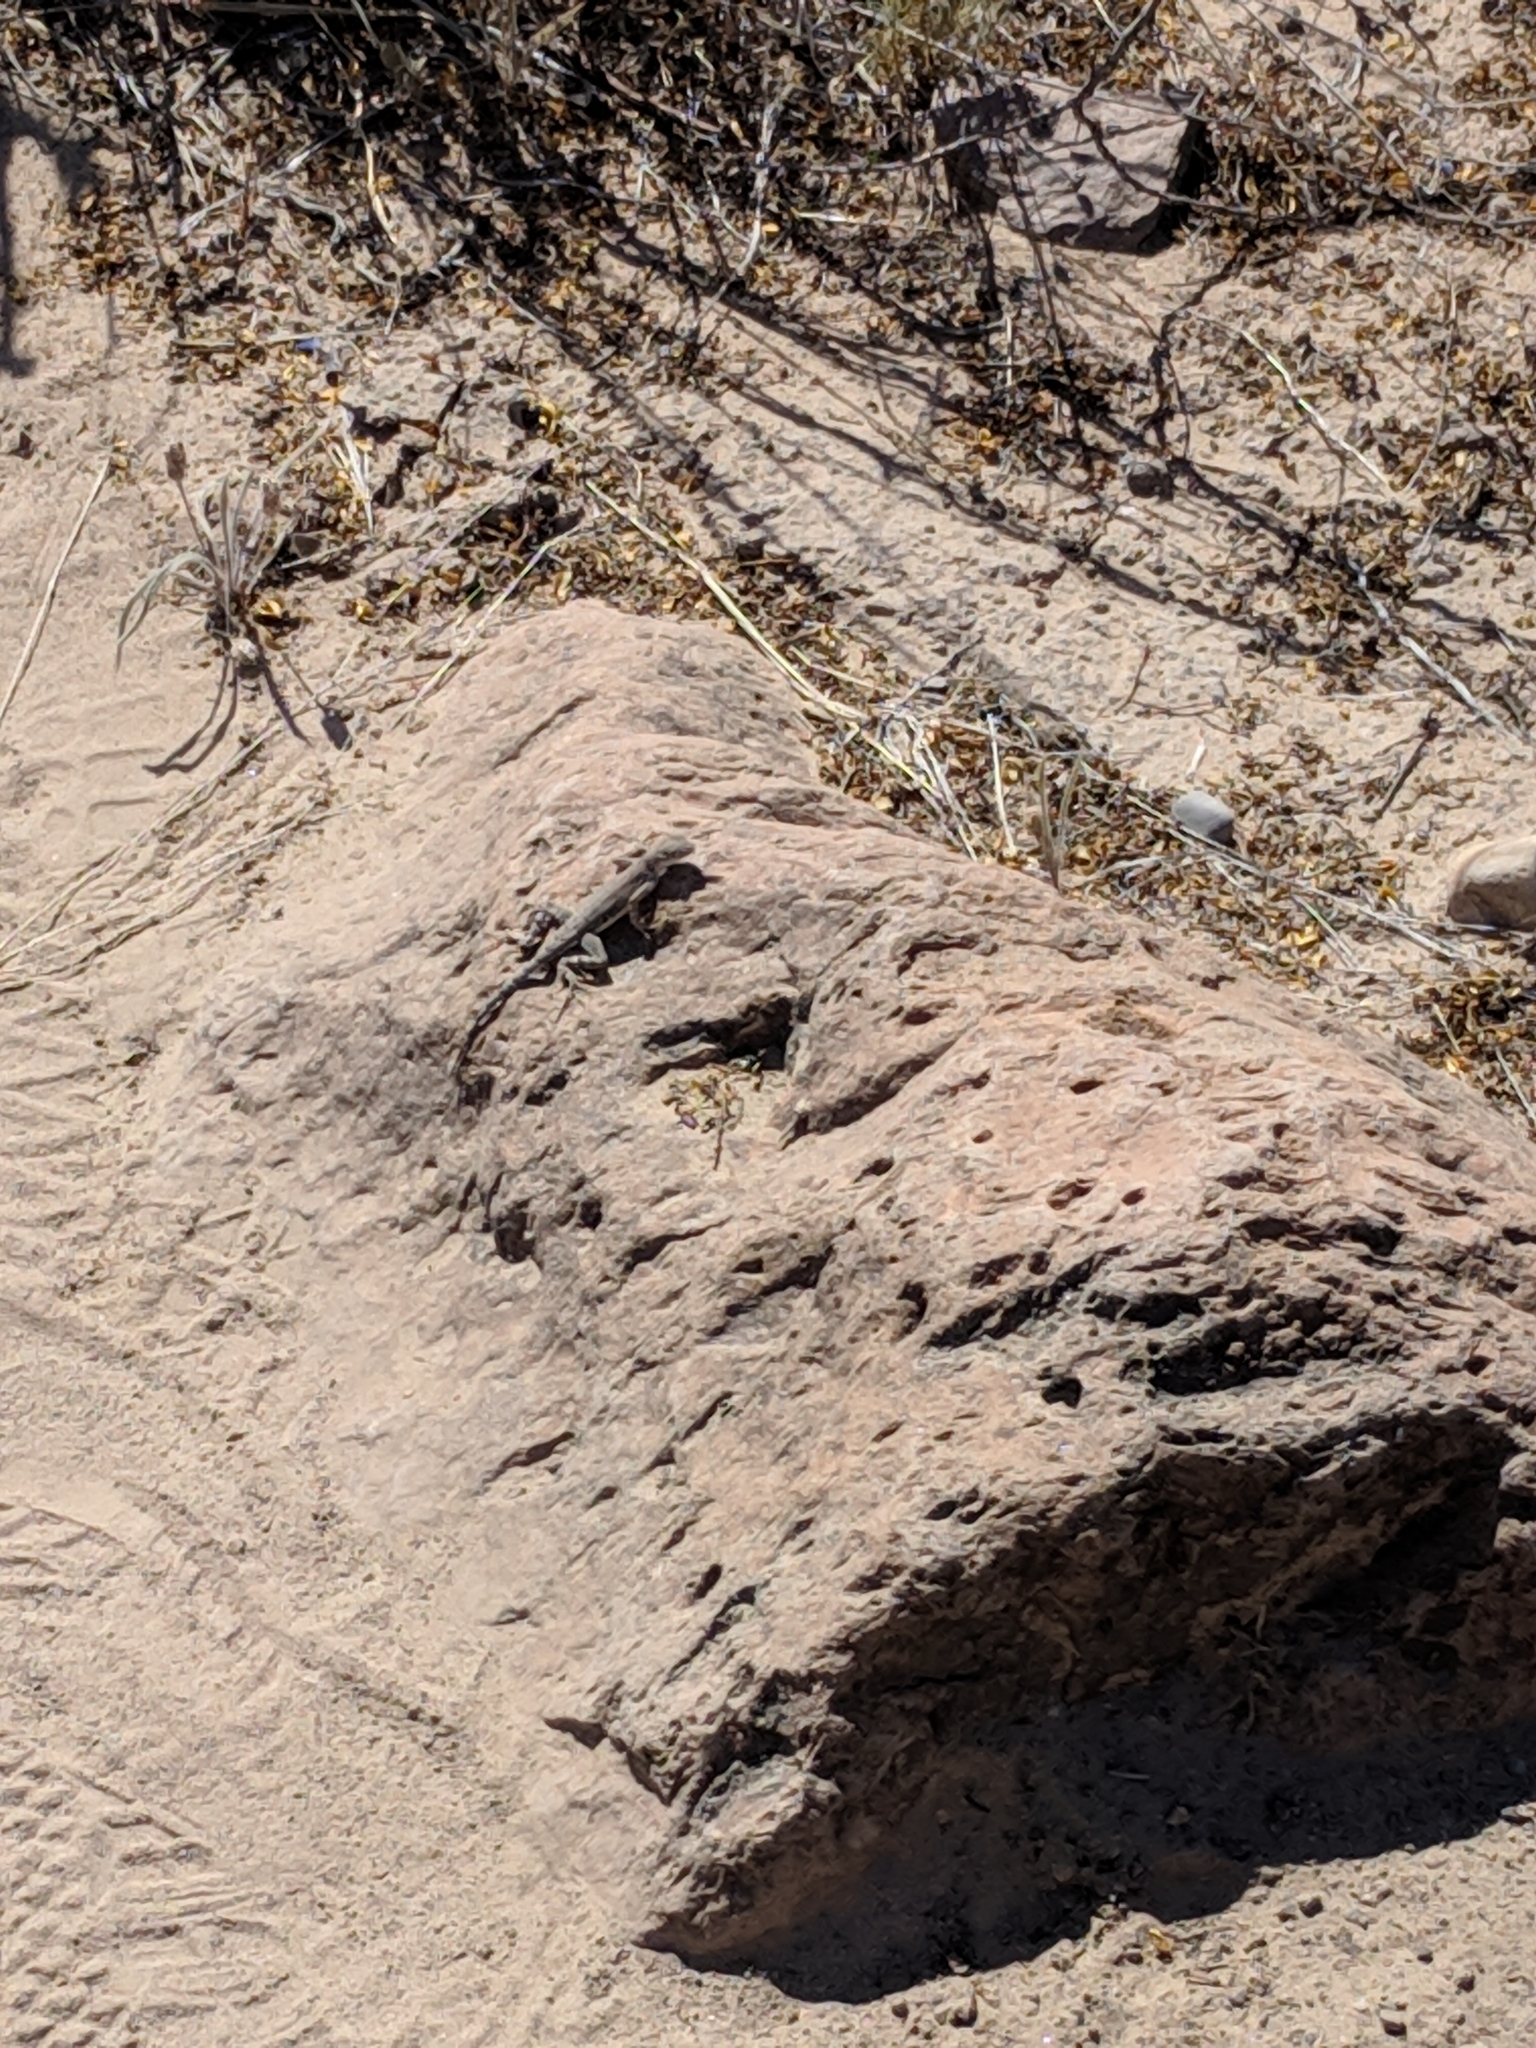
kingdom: Animalia
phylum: Chordata
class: Squamata
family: Phrynosomatidae
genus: Cophosaurus
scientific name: Cophosaurus texanus
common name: Greater earless lizard
